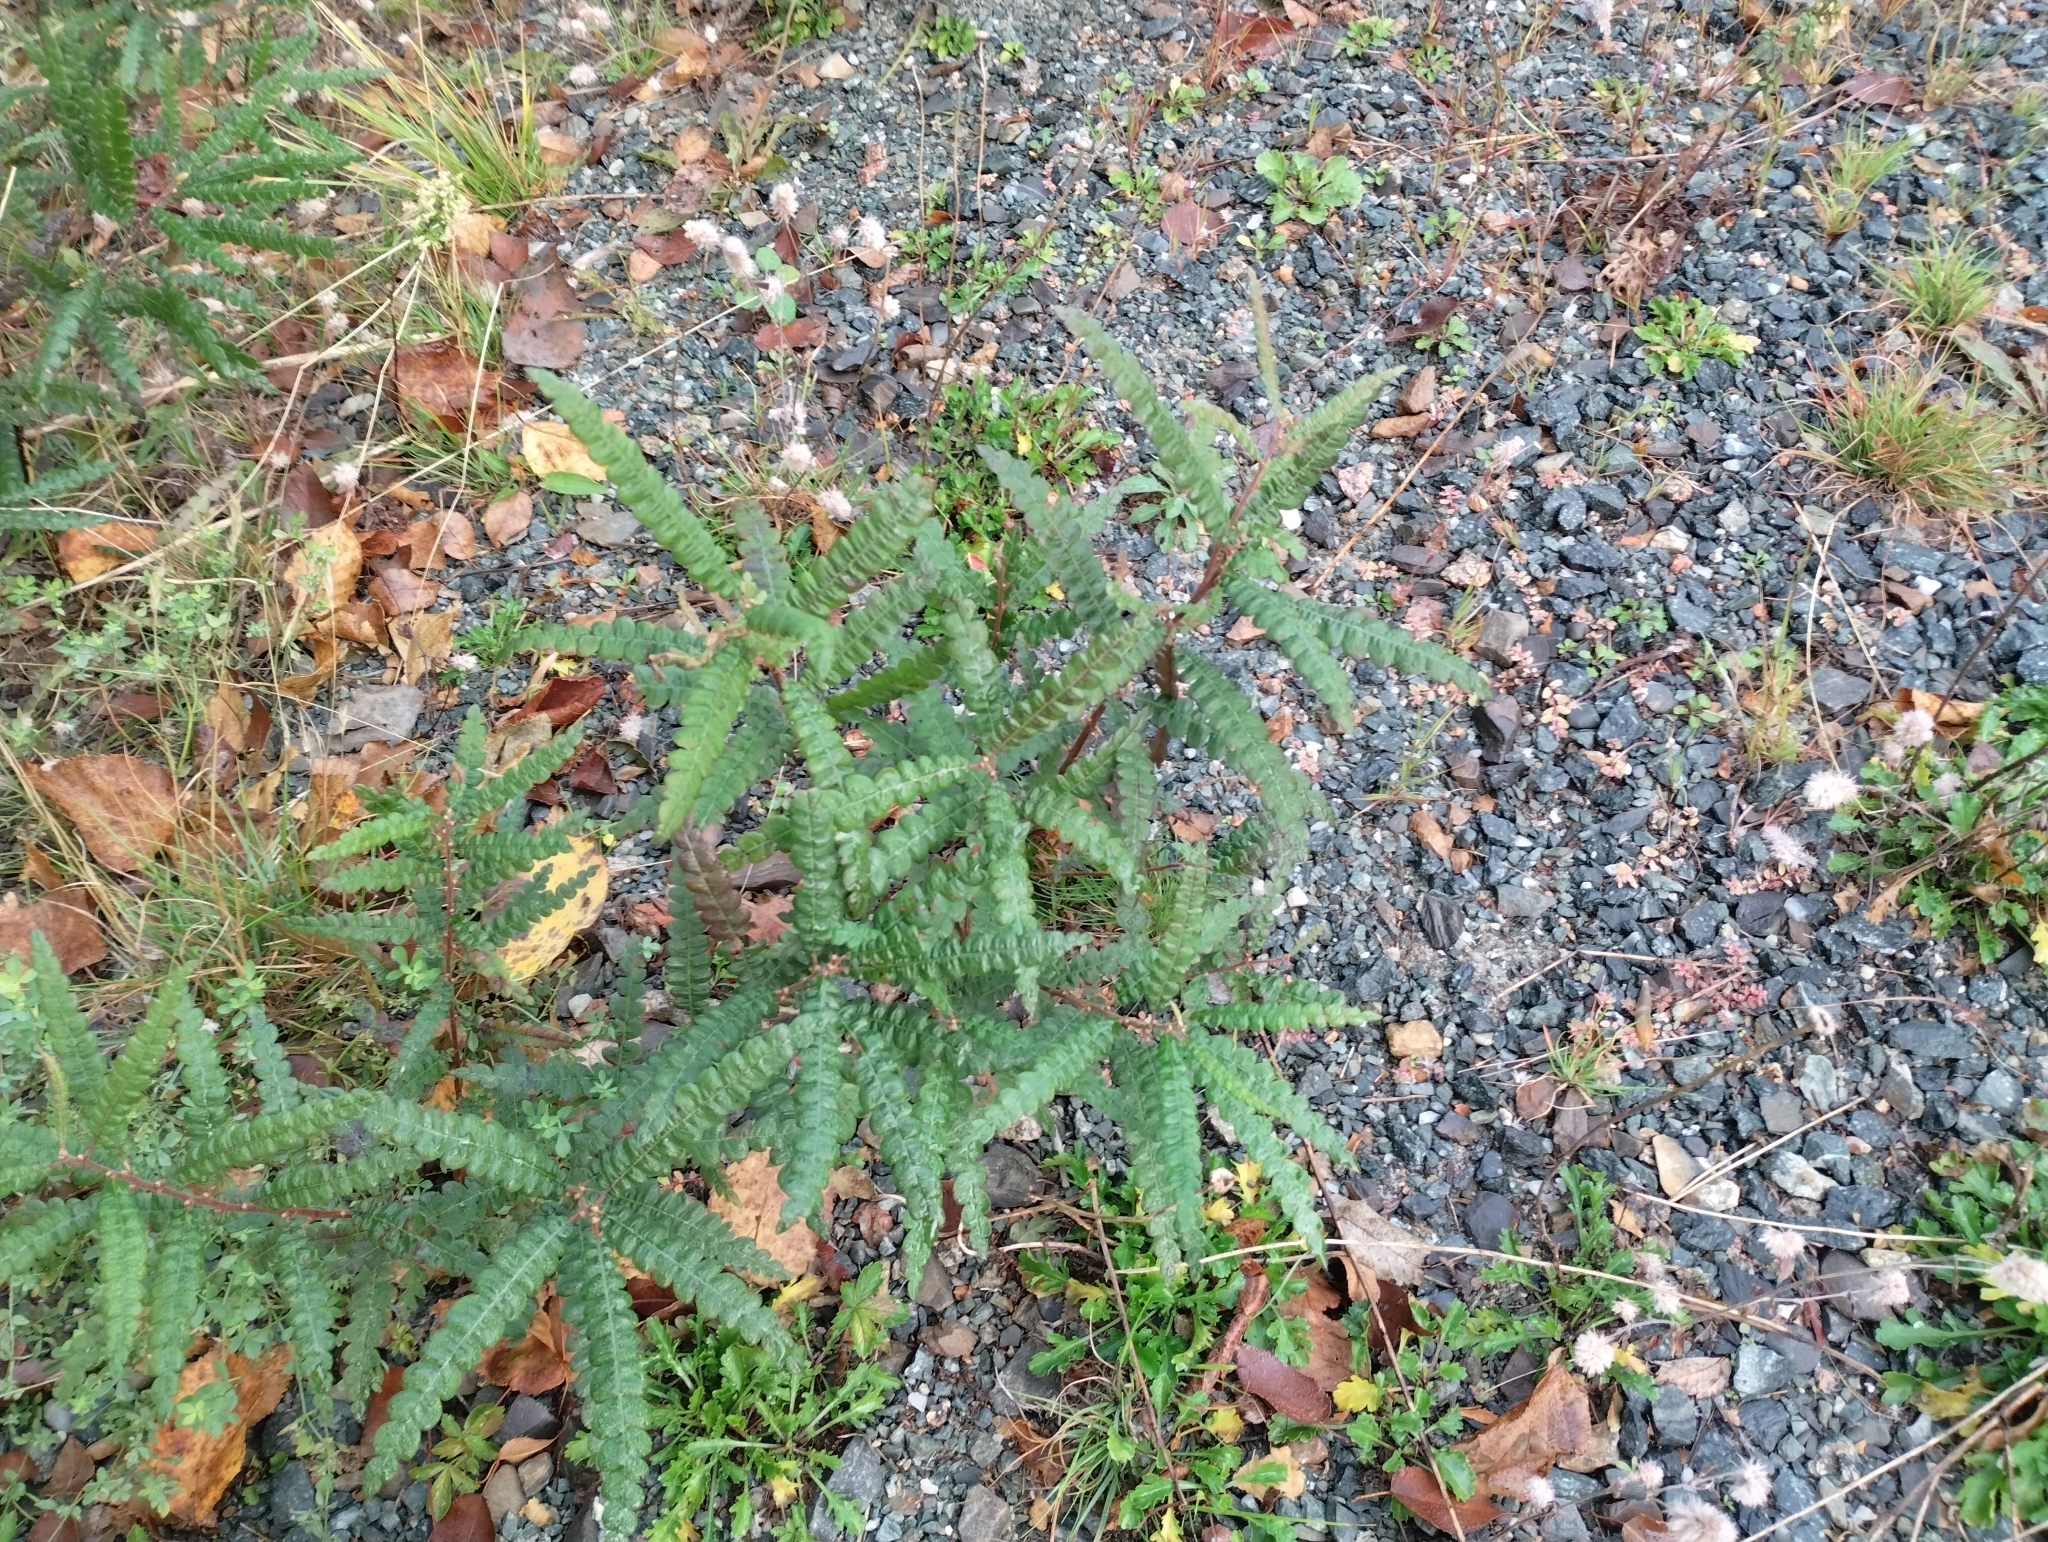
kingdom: Plantae
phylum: Tracheophyta
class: Magnoliopsida
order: Fagales
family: Myricaceae
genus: Comptonia
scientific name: Comptonia peregrina
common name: Sweet-fern
